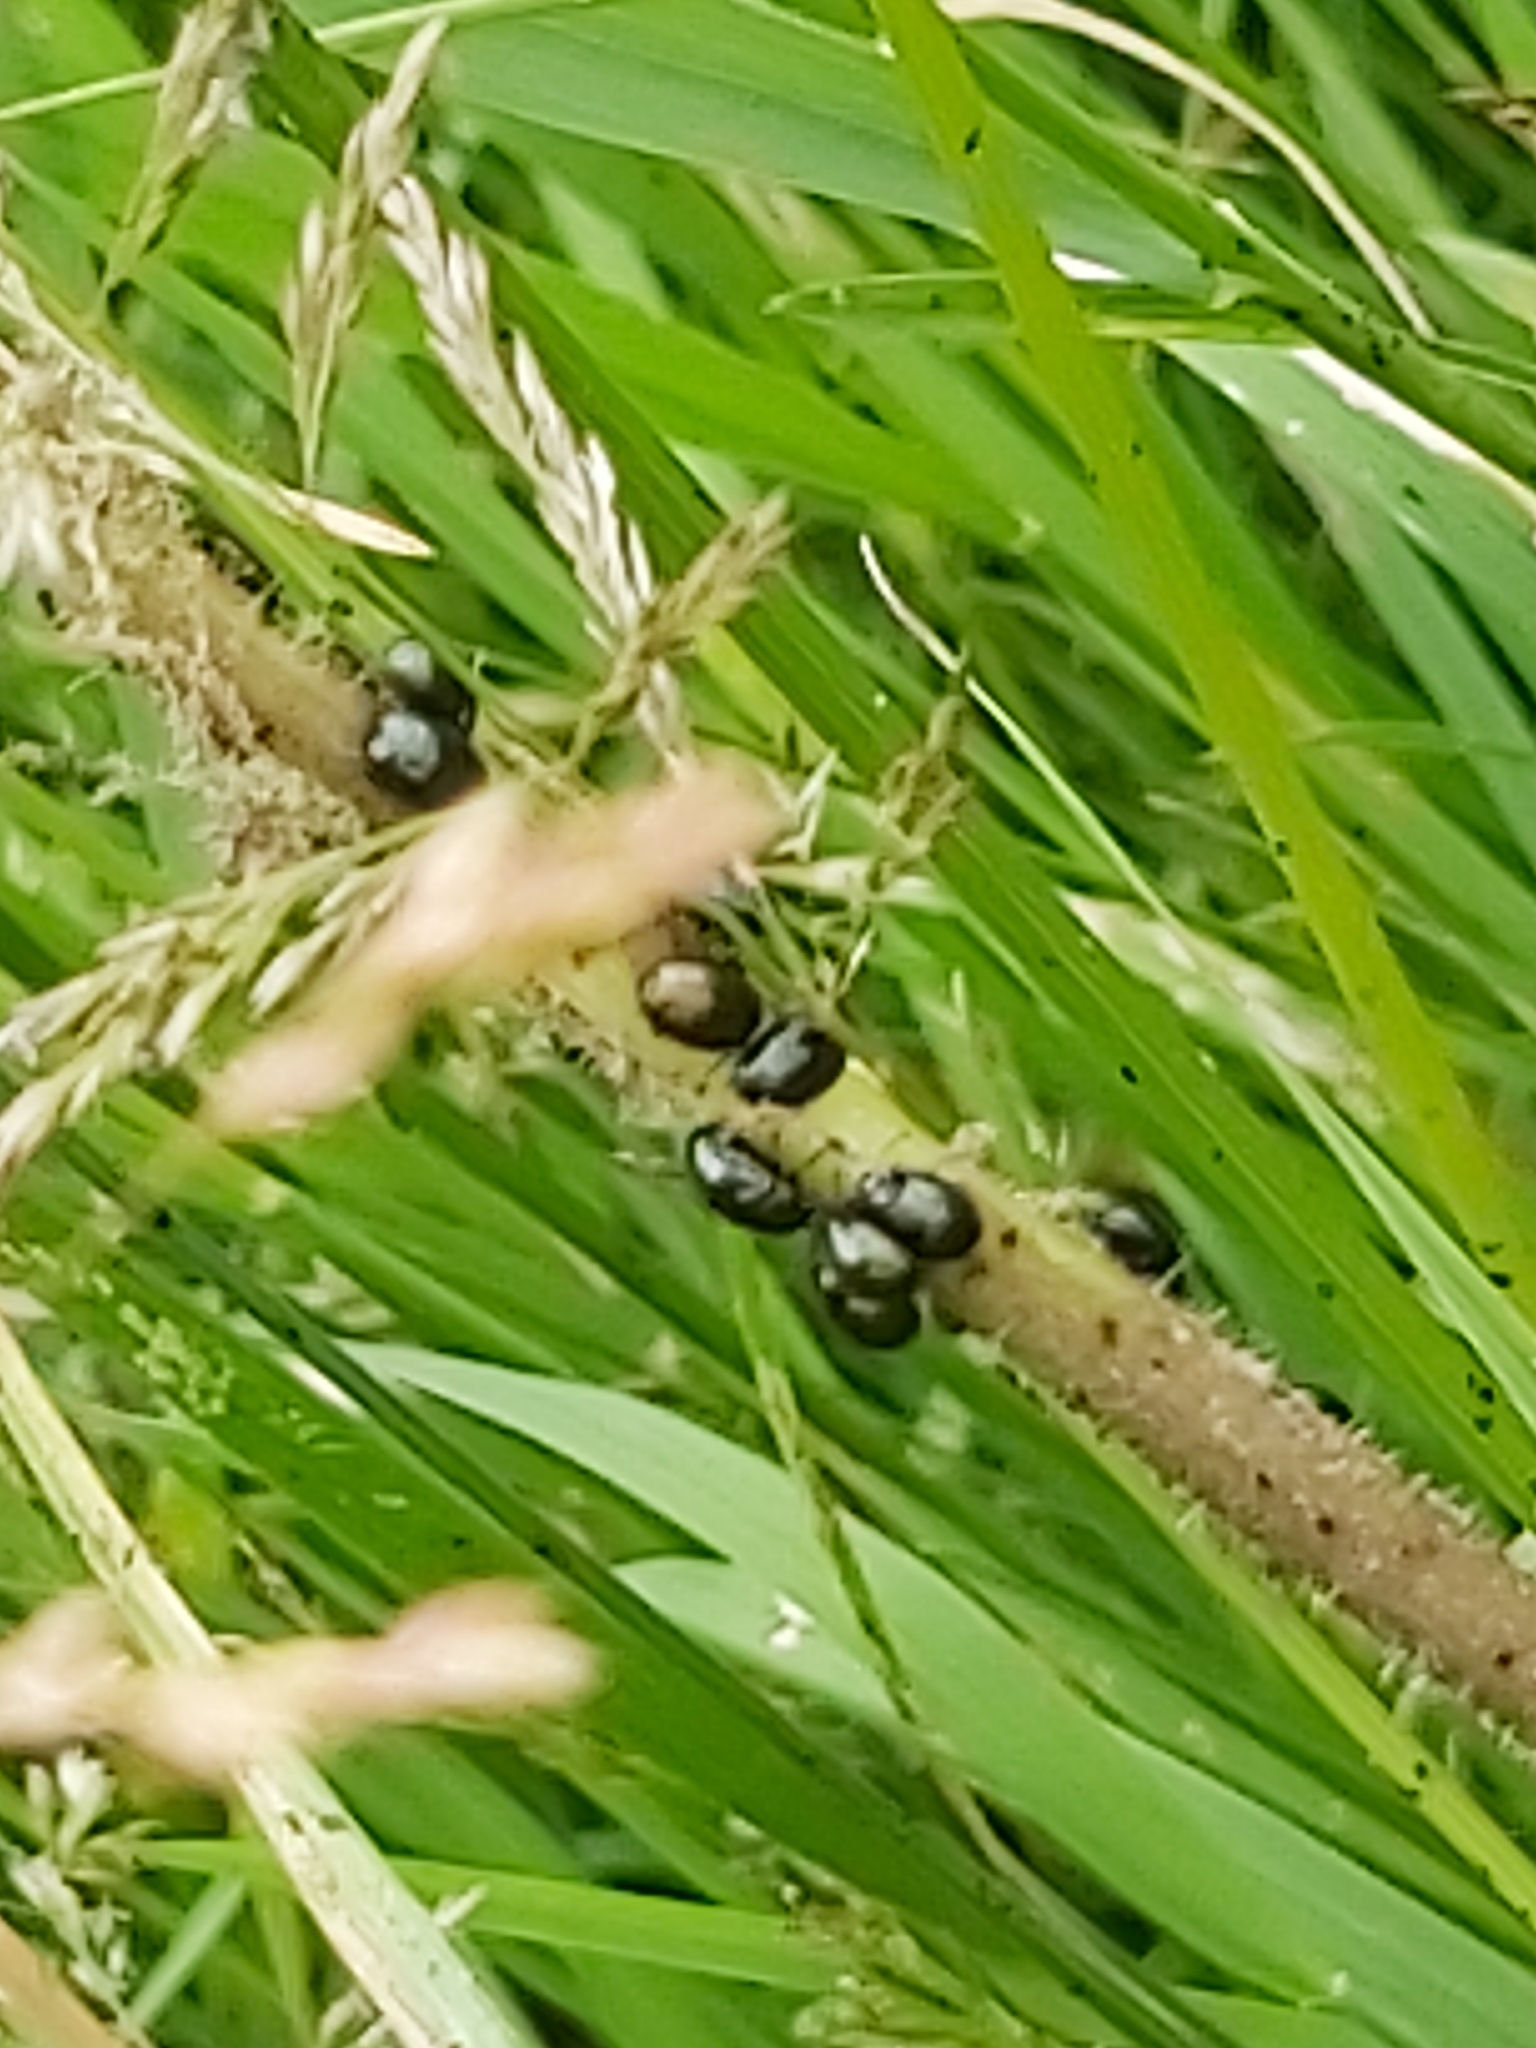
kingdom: Animalia
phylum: Arthropoda
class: Insecta
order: Coleoptera
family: Chrysomelidae
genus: Phaedon
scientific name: Phaedon tumidulus
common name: Celery leaf beetle
